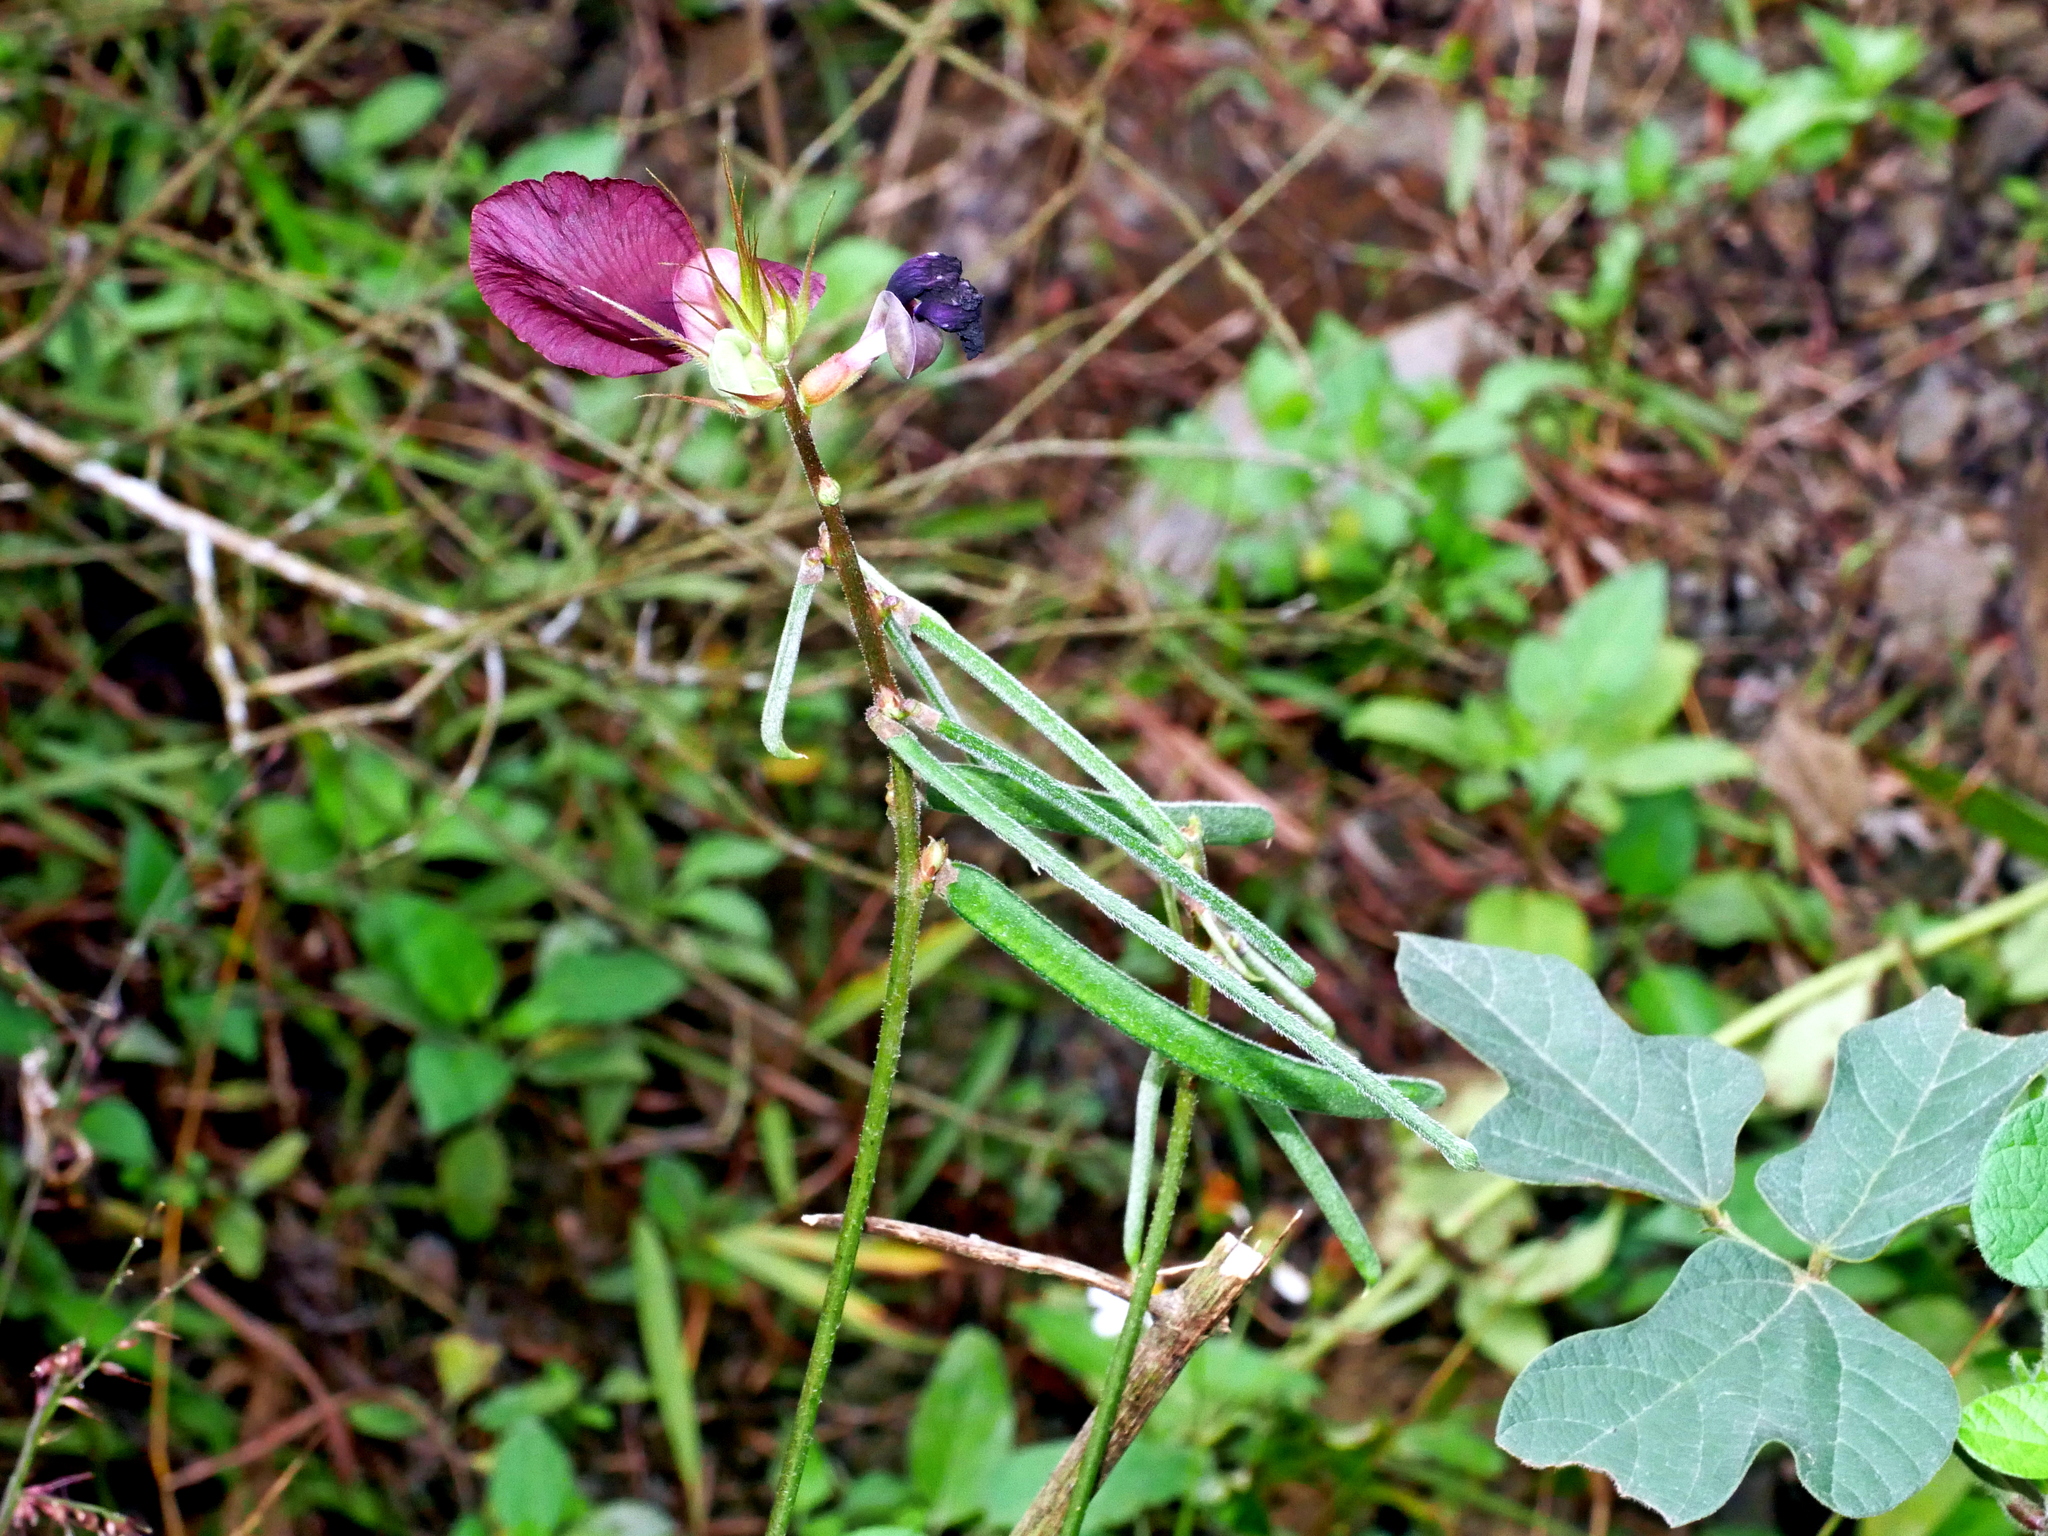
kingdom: Plantae
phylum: Tracheophyta
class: Magnoliopsida
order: Fabales
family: Fabaceae
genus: Macroptilium
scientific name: Macroptilium bracteatum
